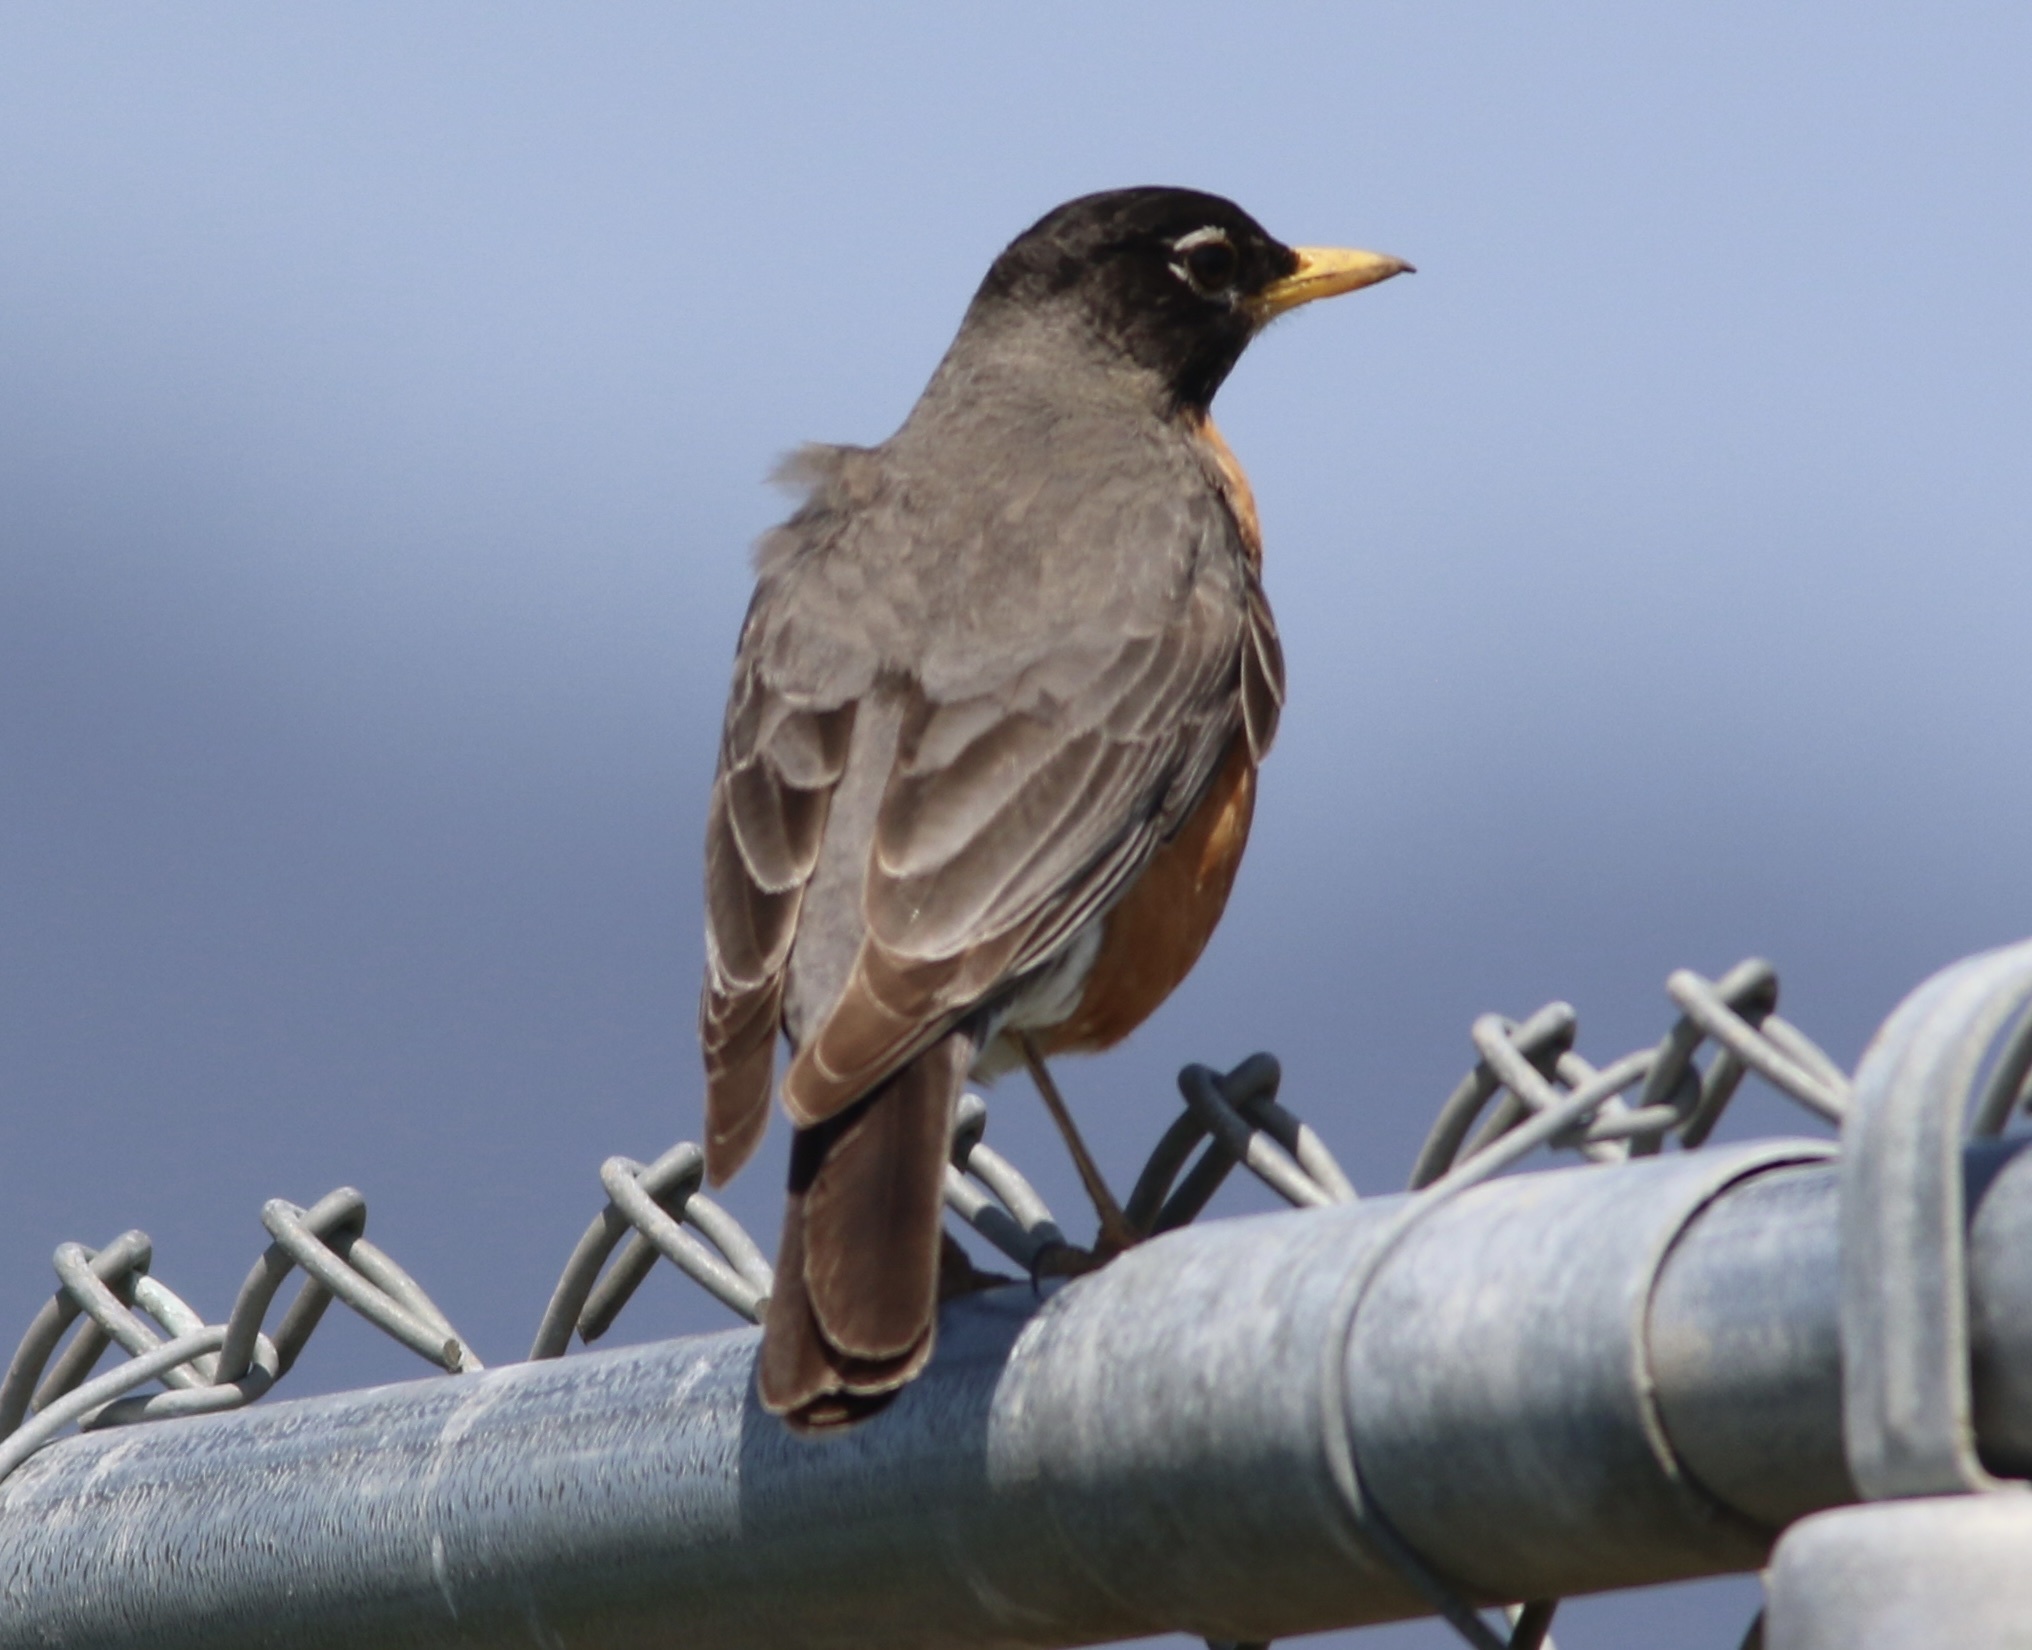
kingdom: Animalia
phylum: Chordata
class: Aves
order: Passeriformes
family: Turdidae
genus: Turdus
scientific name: Turdus migratorius
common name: American robin
